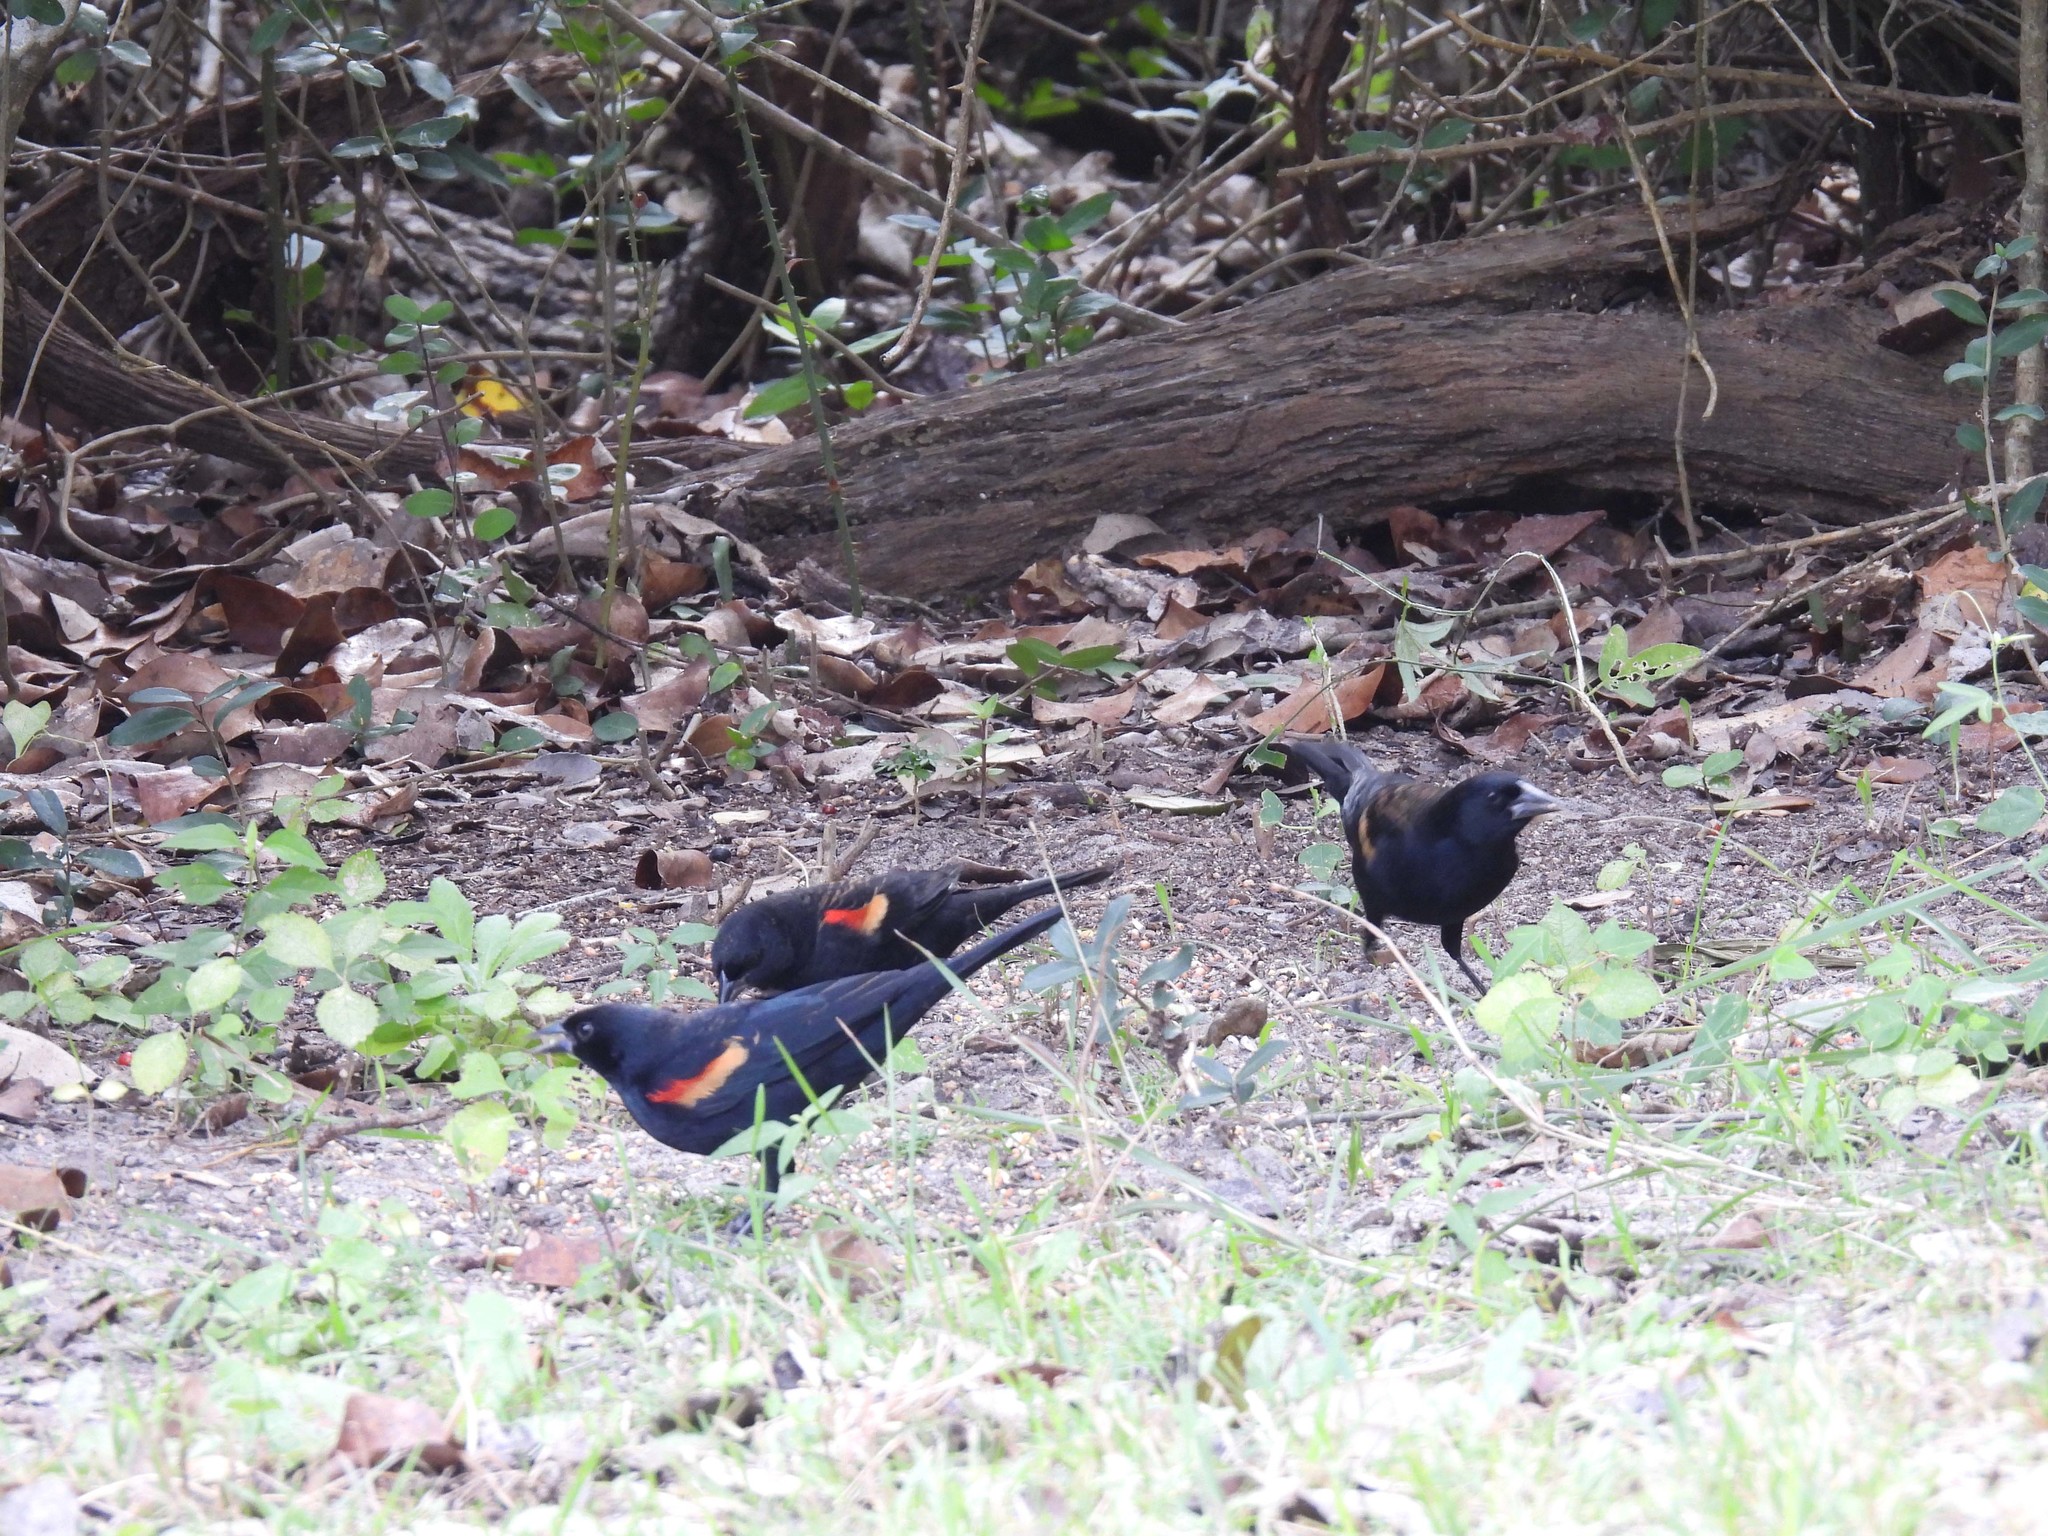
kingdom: Animalia
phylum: Chordata
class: Aves
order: Passeriformes
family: Icteridae
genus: Agelaius
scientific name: Agelaius phoeniceus
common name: Red-winged blackbird
